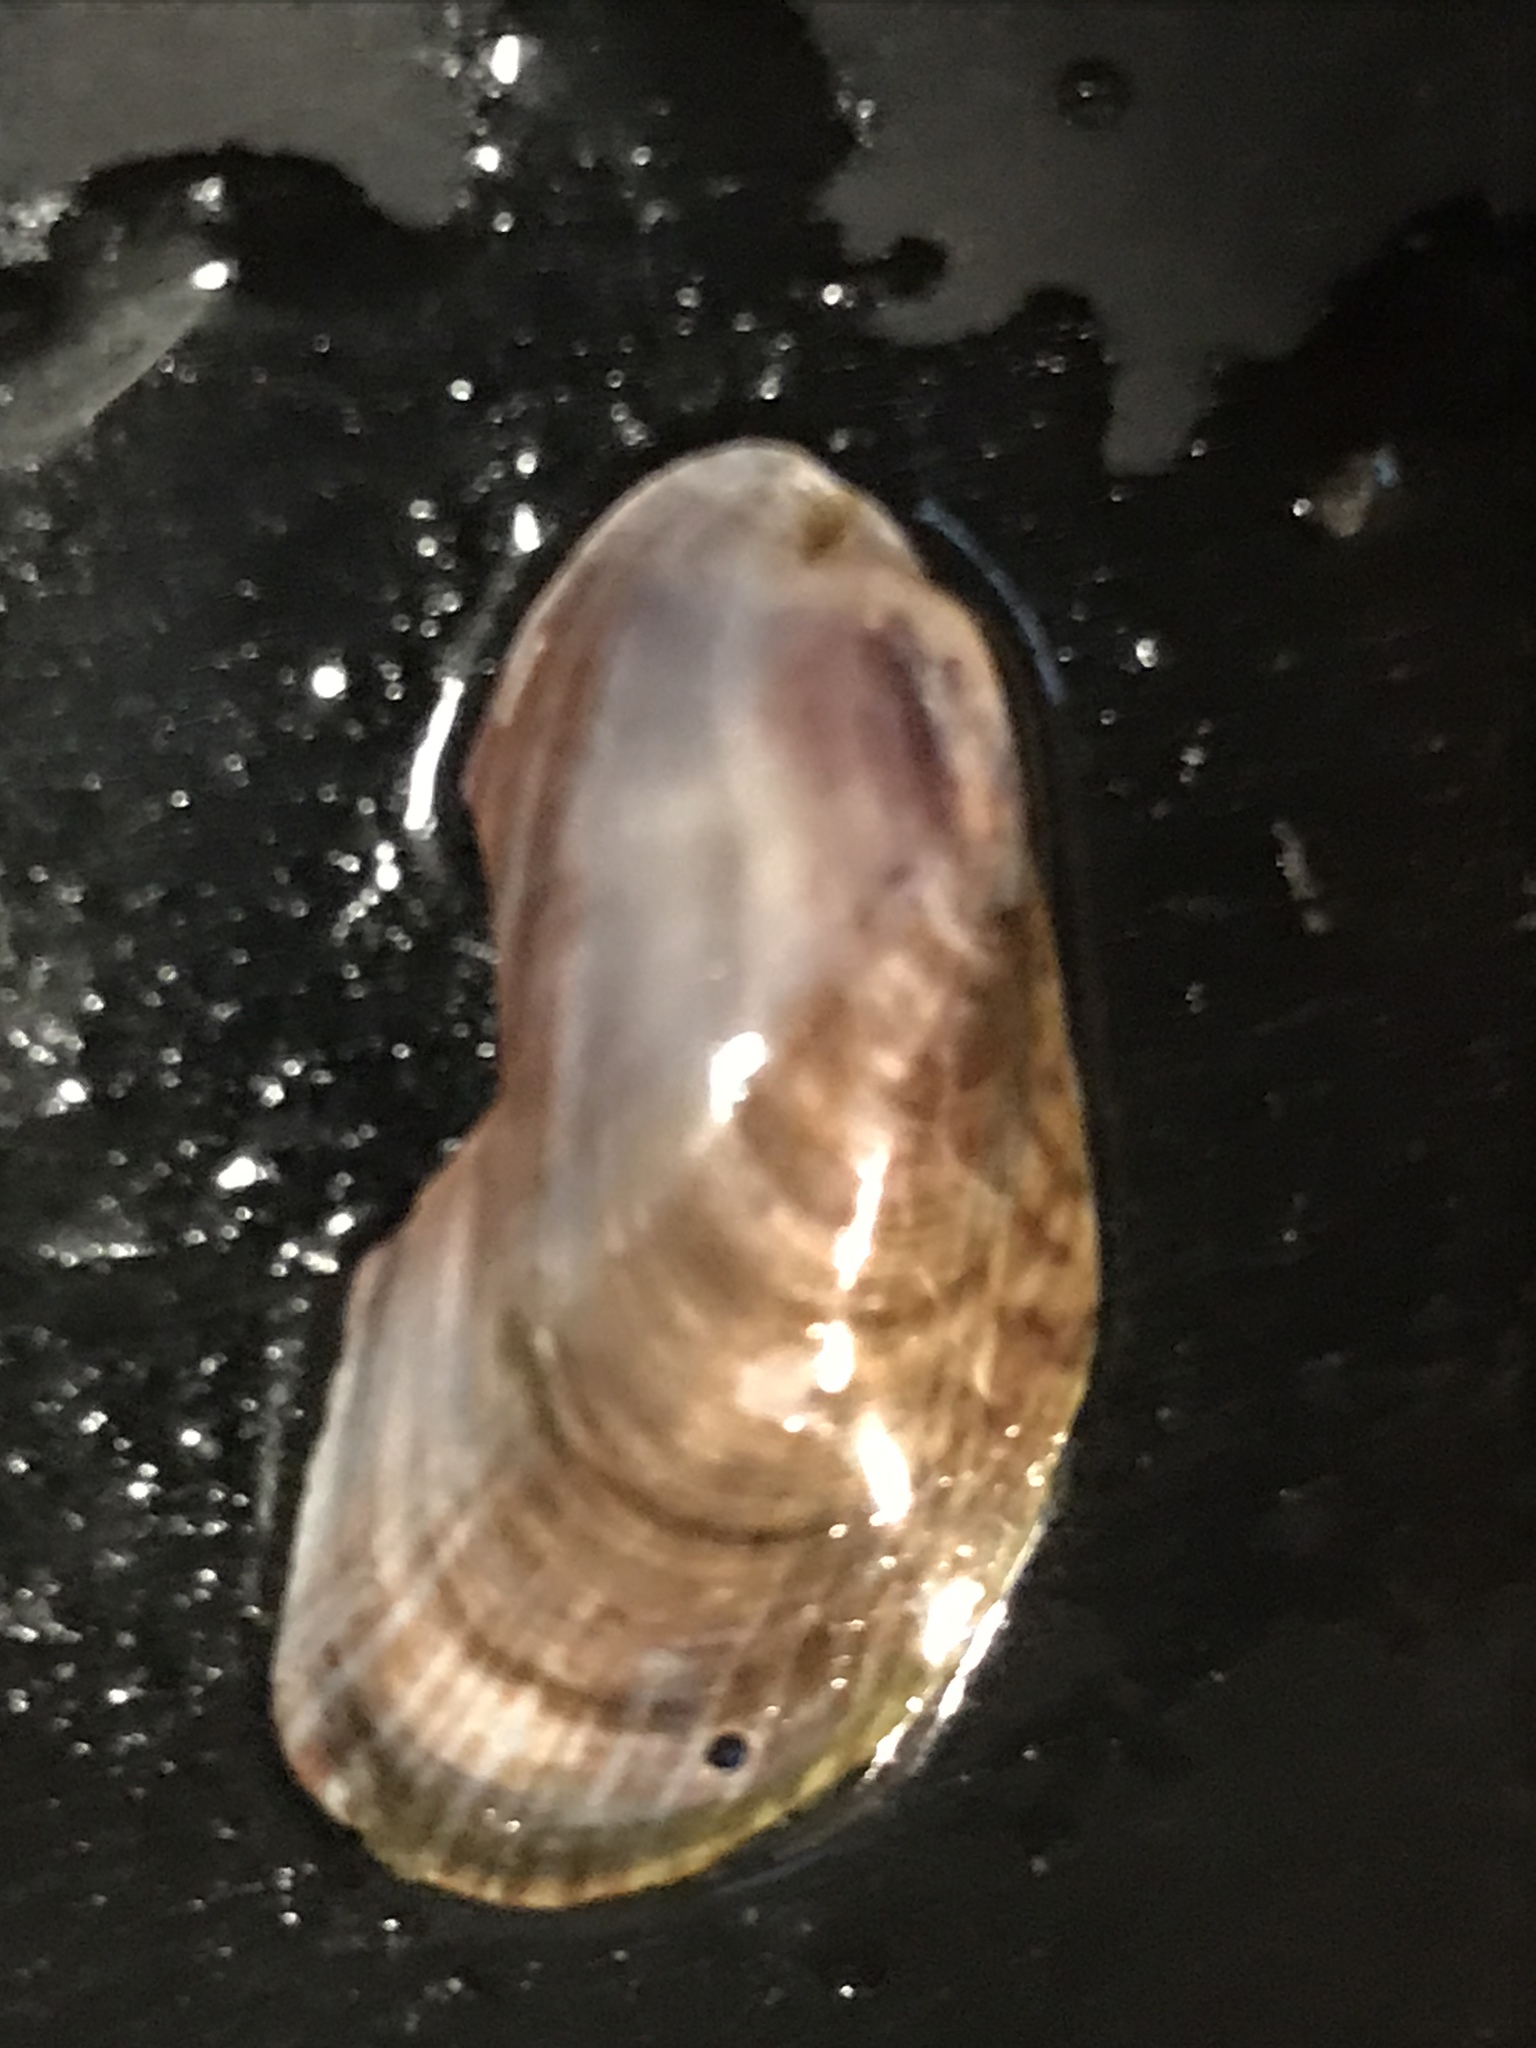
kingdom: Animalia
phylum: Mollusca
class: Bivalvia
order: Mytilida
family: Mytilidae
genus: Arcuatula
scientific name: Arcuatula senhousia
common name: Asian mussel
